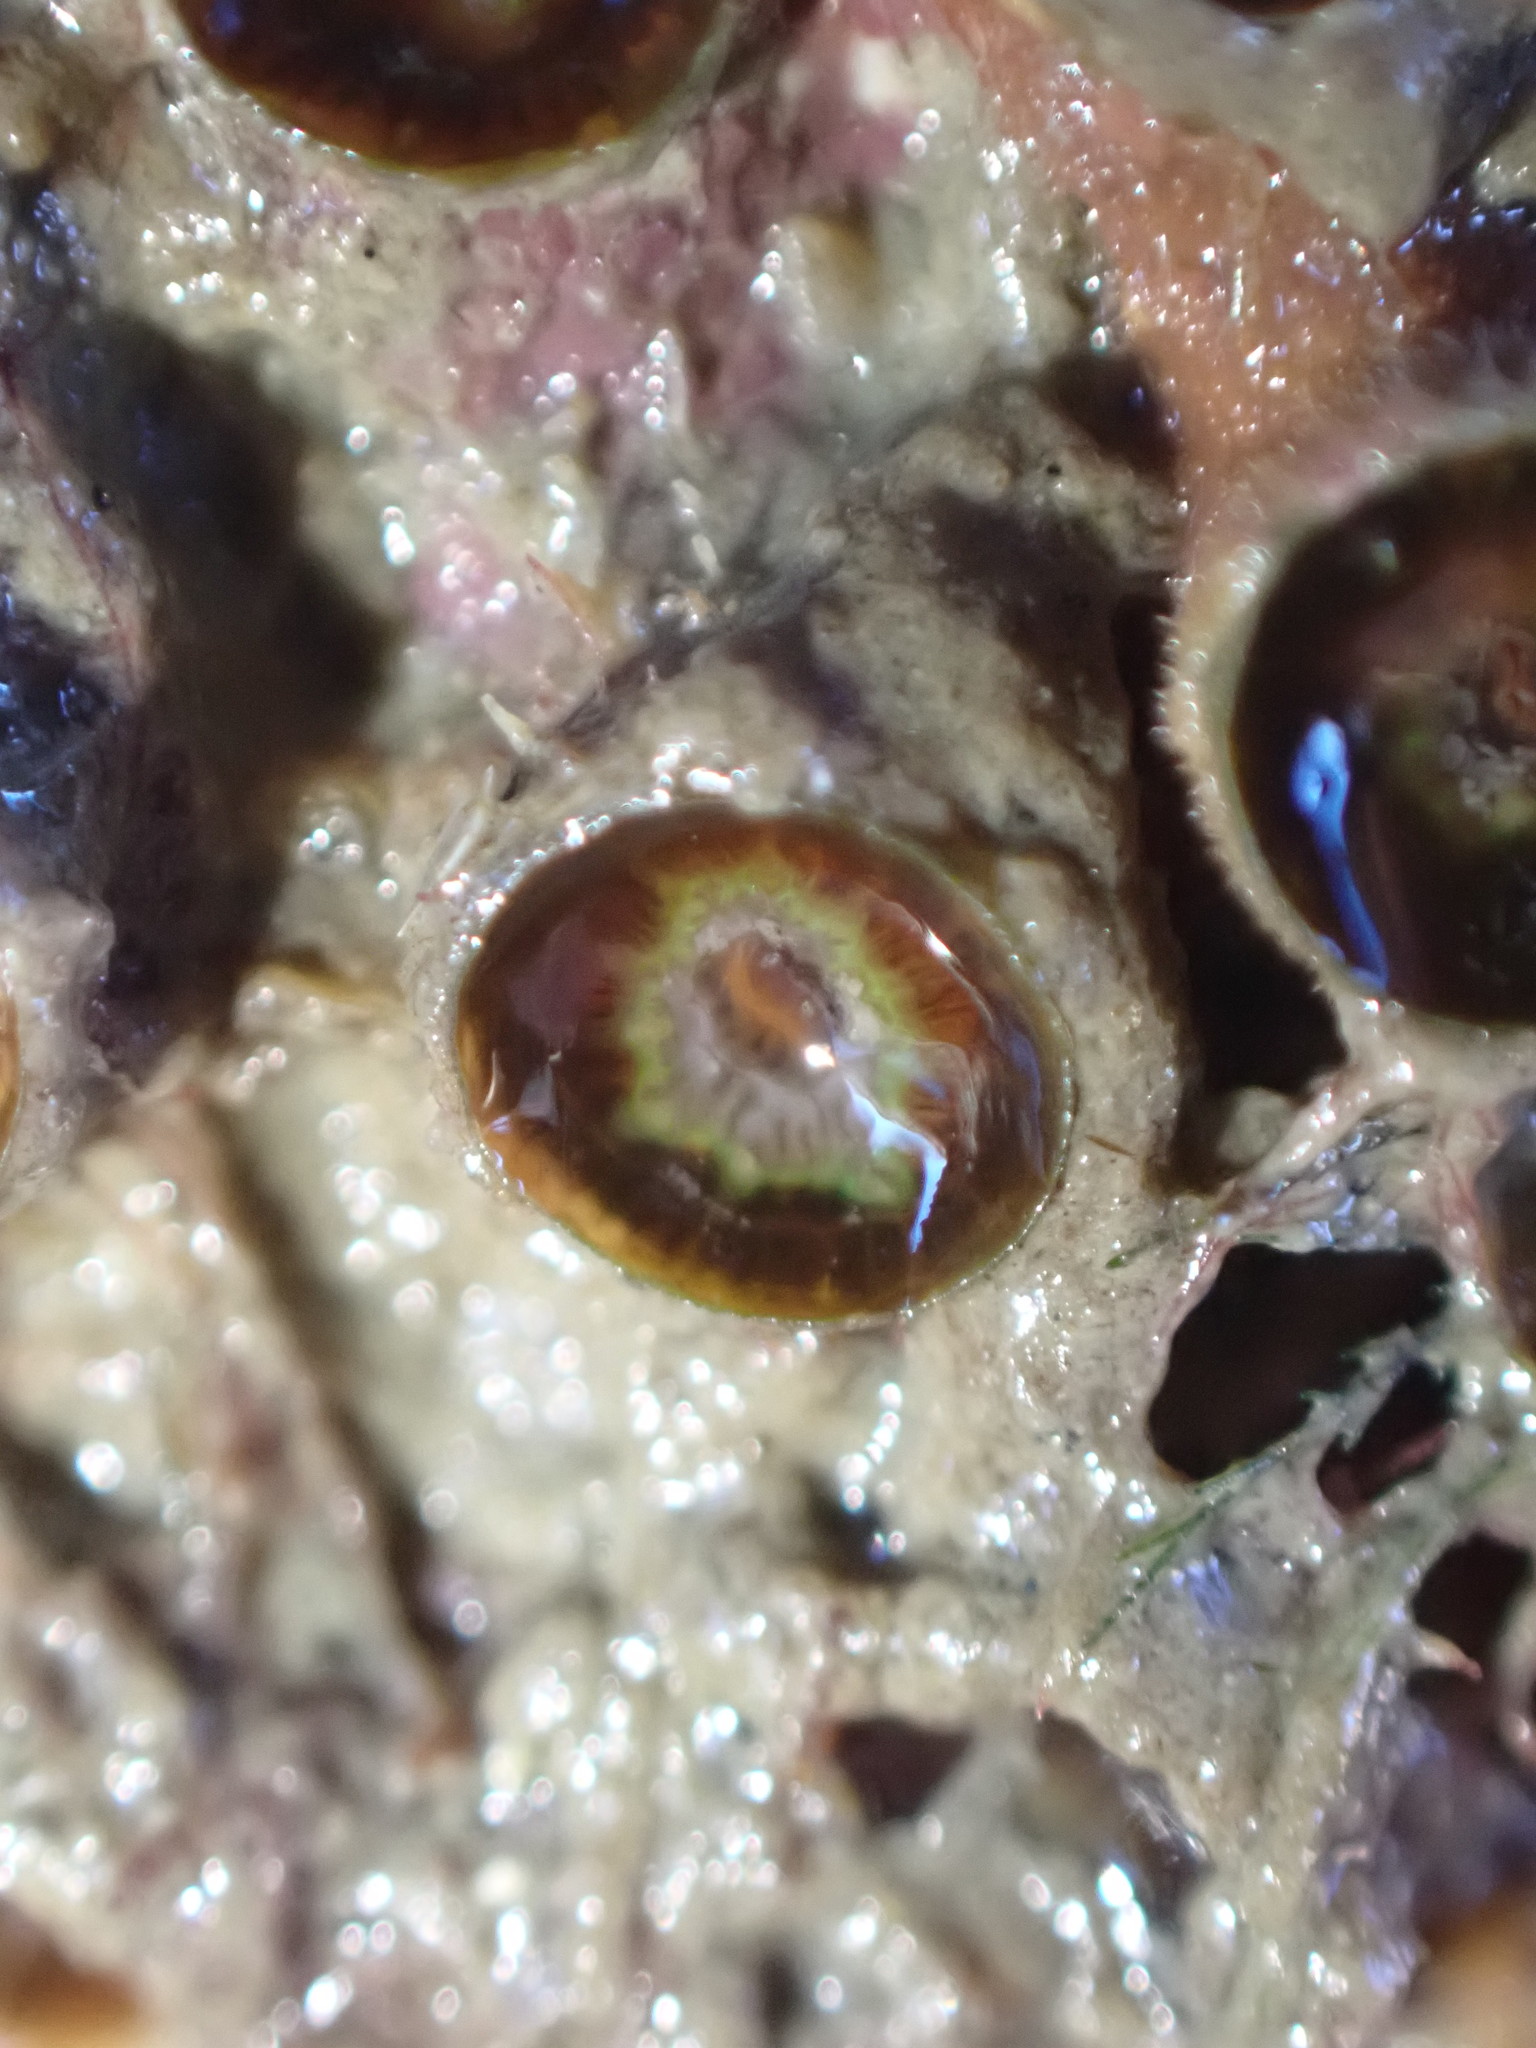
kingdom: Animalia
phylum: Cnidaria
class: Anthozoa
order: Scleractinia
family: Rhizangiidae
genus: Culicia
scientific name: Culicia rubeola
